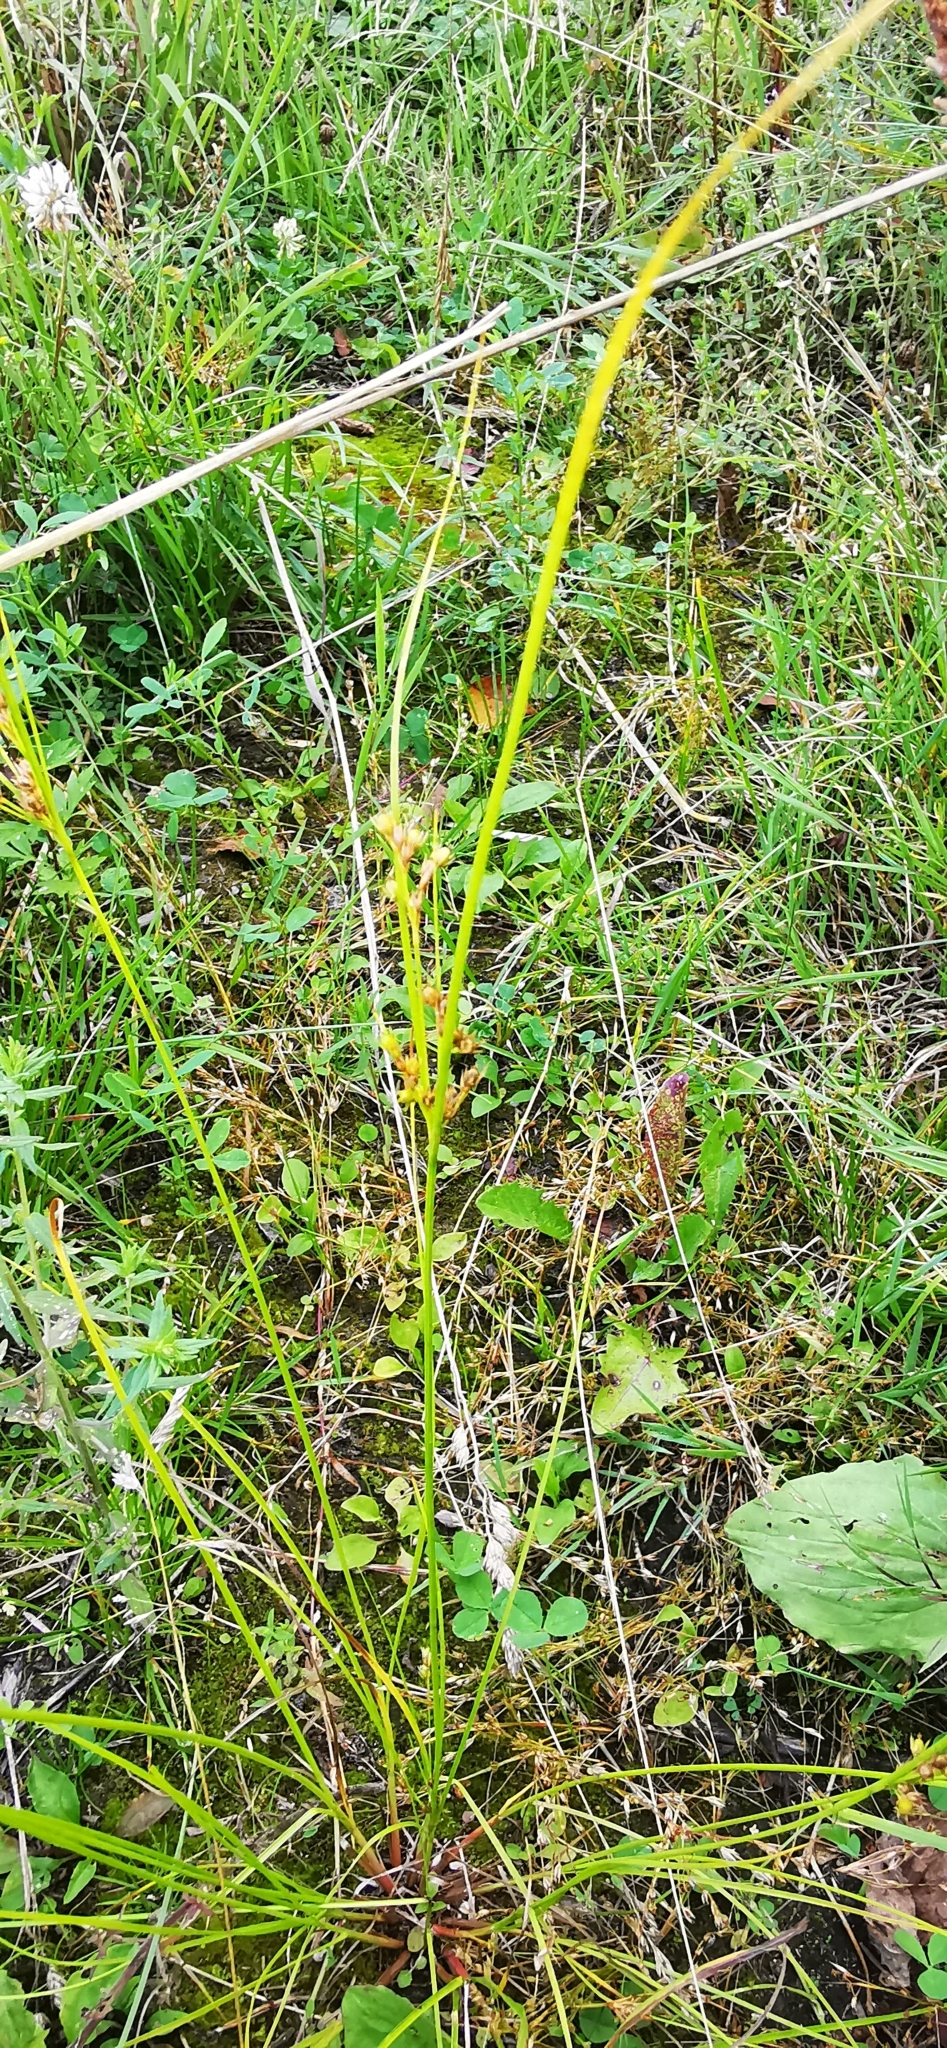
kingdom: Plantae
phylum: Tracheophyta
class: Liliopsida
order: Poales
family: Juncaceae
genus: Juncus
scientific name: Juncus tenuis
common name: Slender rush
